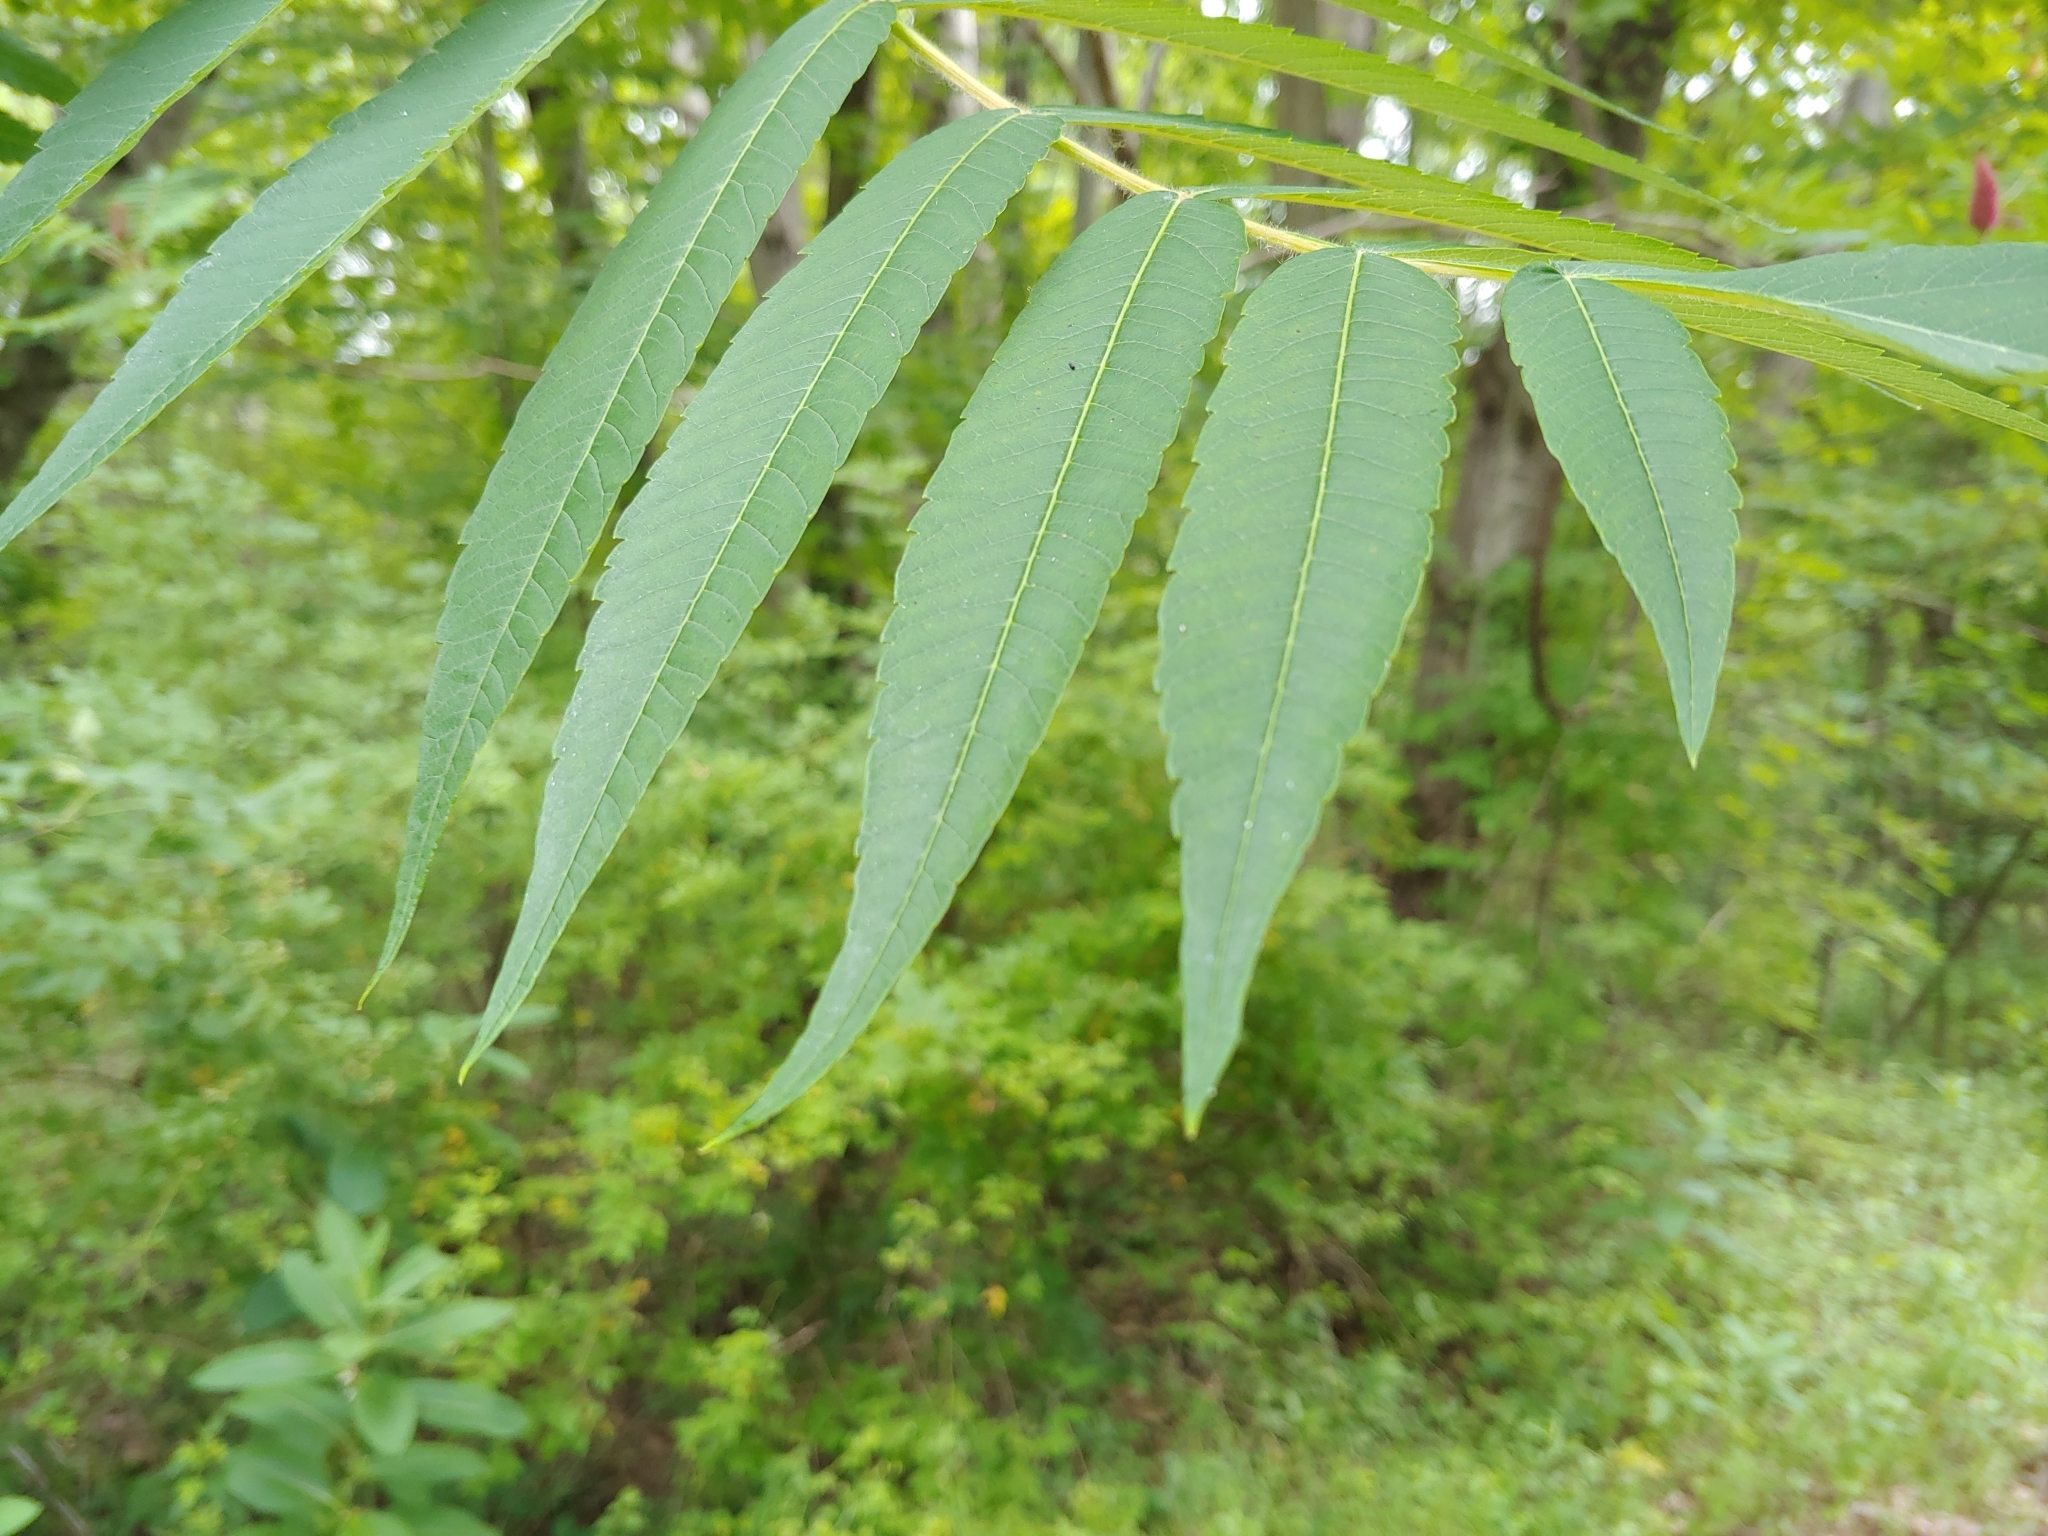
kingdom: Plantae
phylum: Tracheophyta
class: Magnoliopsida
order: Sapindales
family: Anacardiaceae
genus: Rhus
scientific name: Rhus typhina
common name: Staghorn sumac
